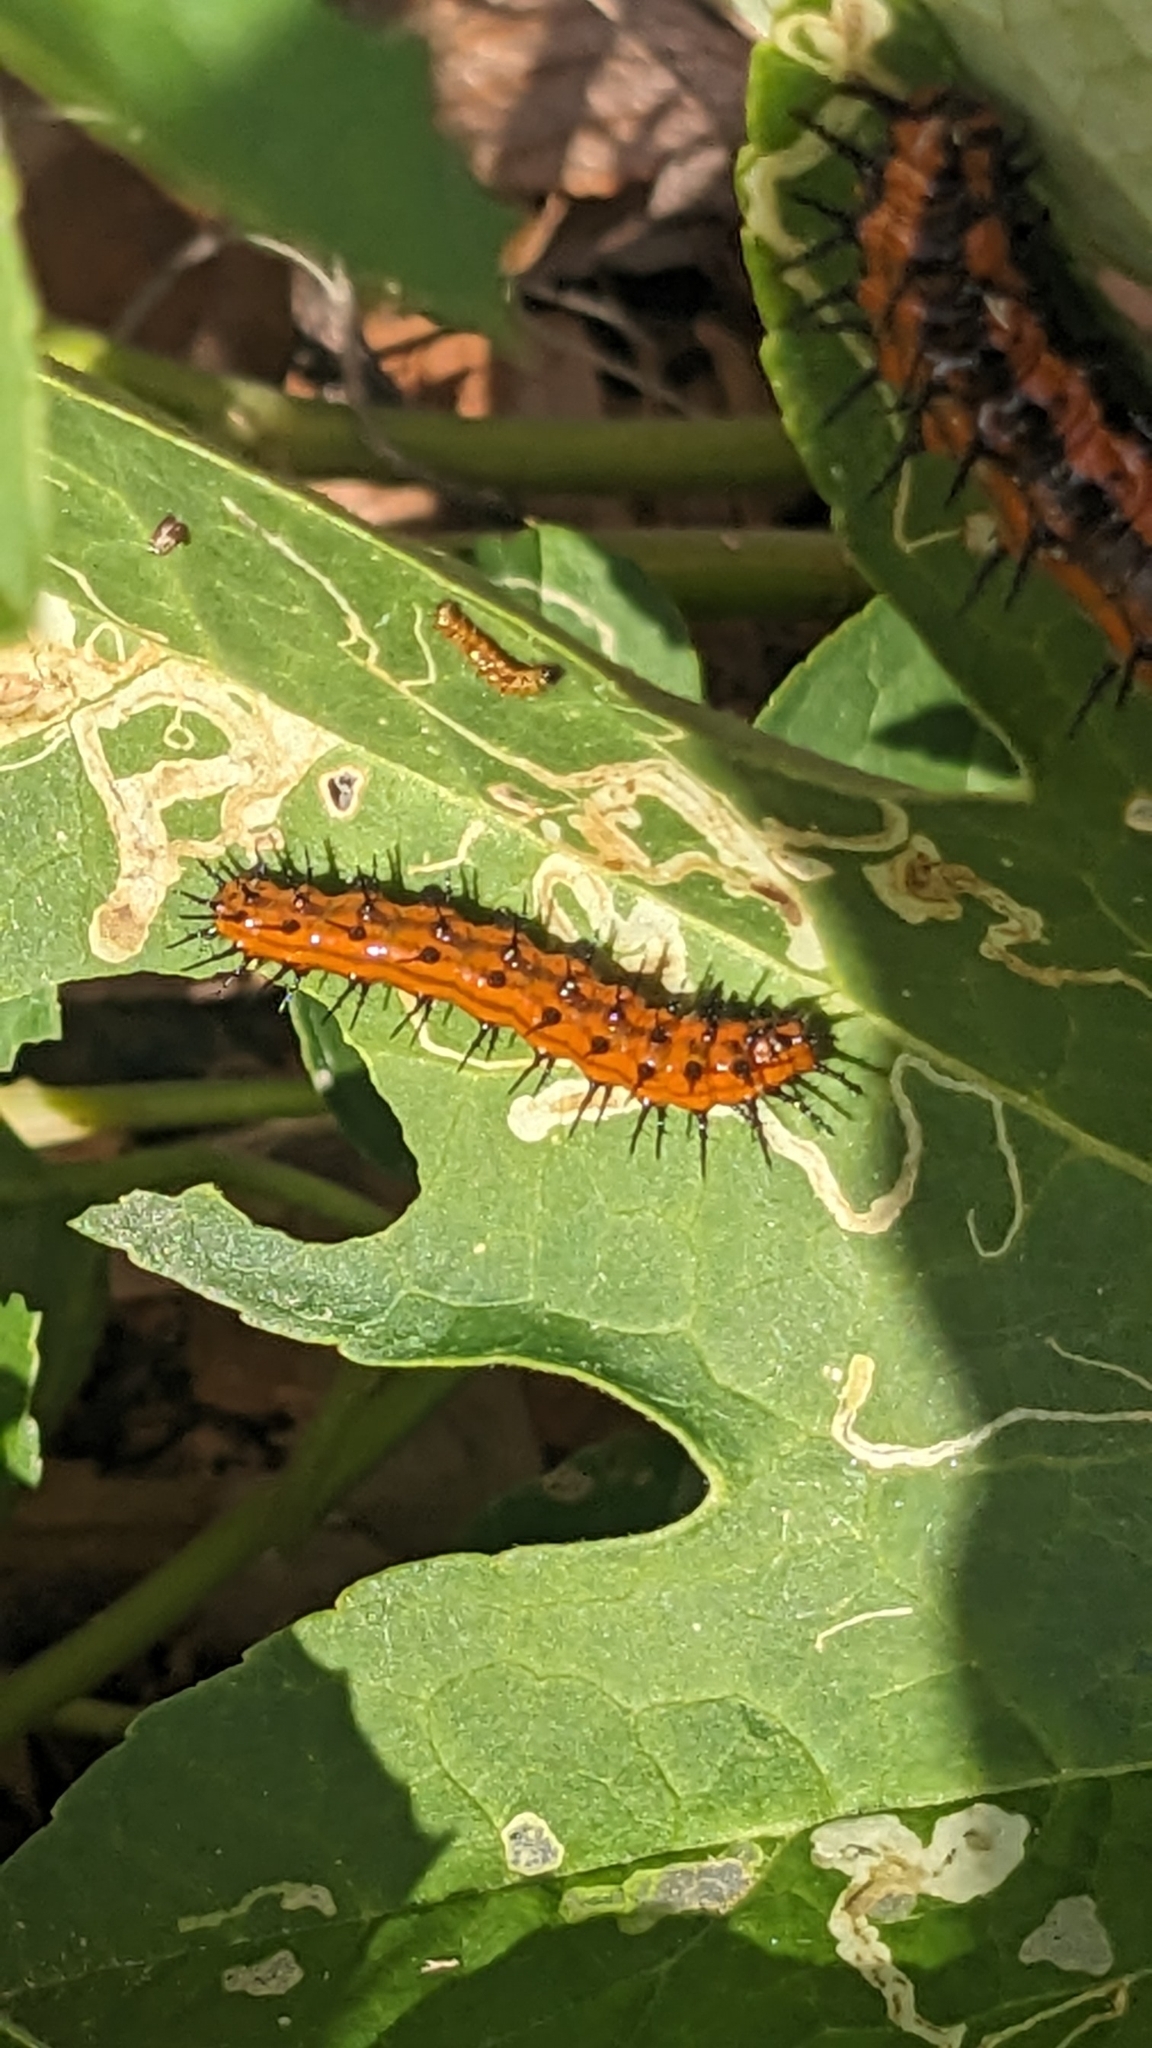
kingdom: Animalia
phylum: Arthropoda
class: Insecta
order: Lepidoptera
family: Nymphalidae
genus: Dione
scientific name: Dione vanillae
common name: Gulf fritillary
